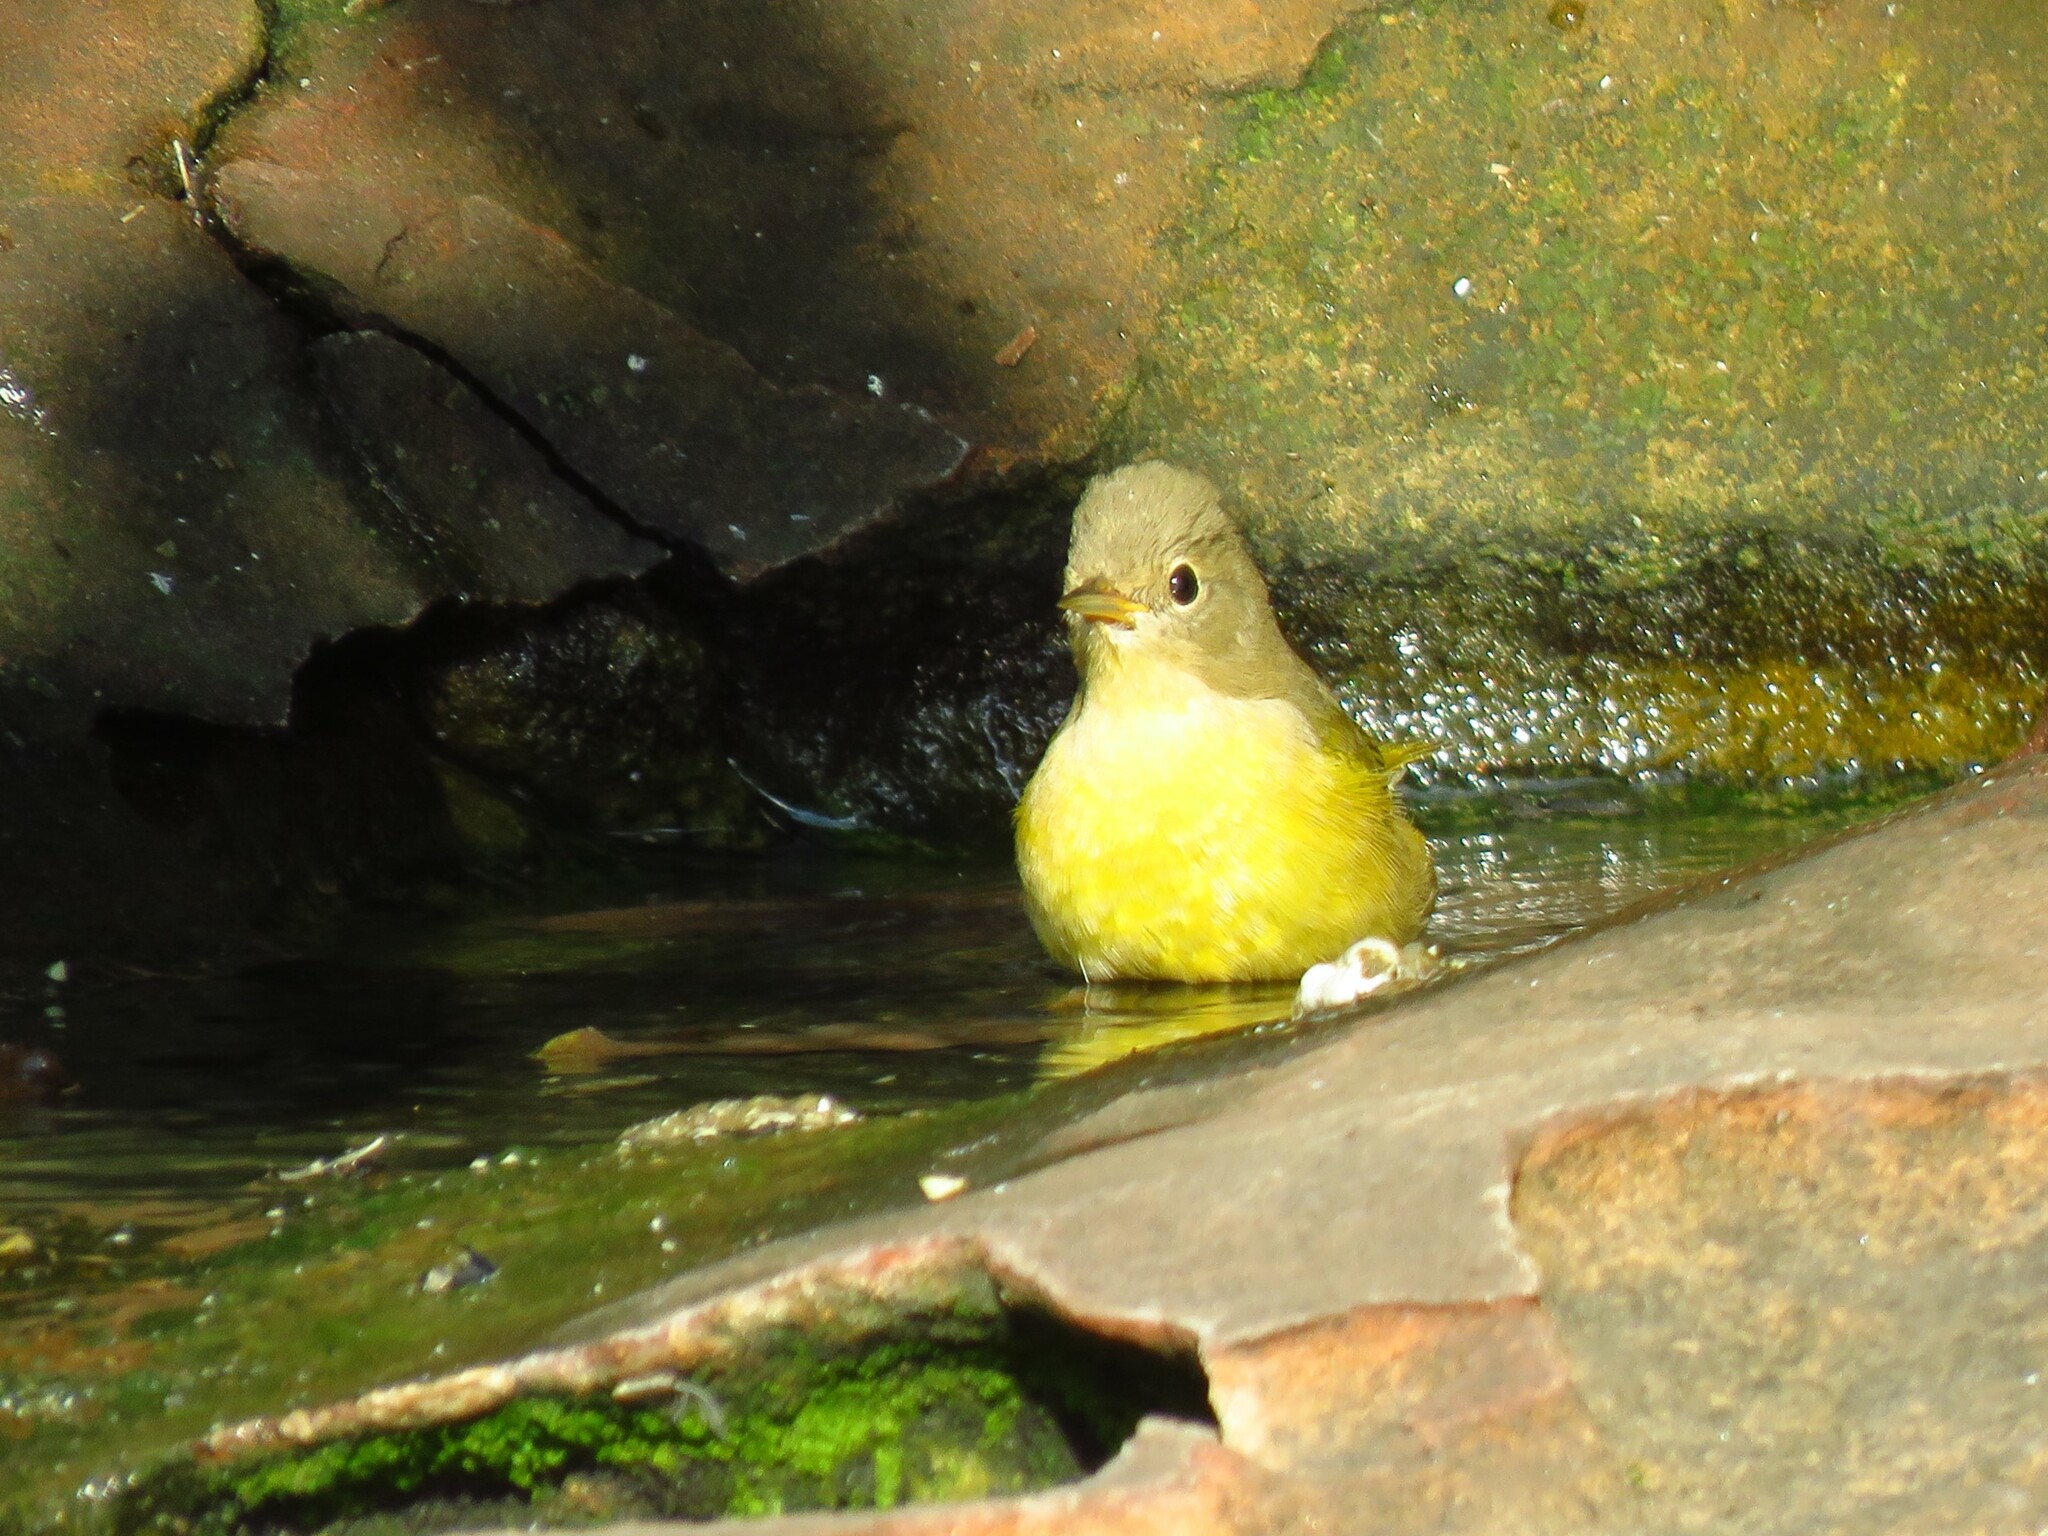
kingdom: Animalia
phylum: Chordata
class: Aves
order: Passeriformes
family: Parulidae
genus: Leiothlypis
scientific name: Leiothlypis ruficapilla
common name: Nashville warbler
